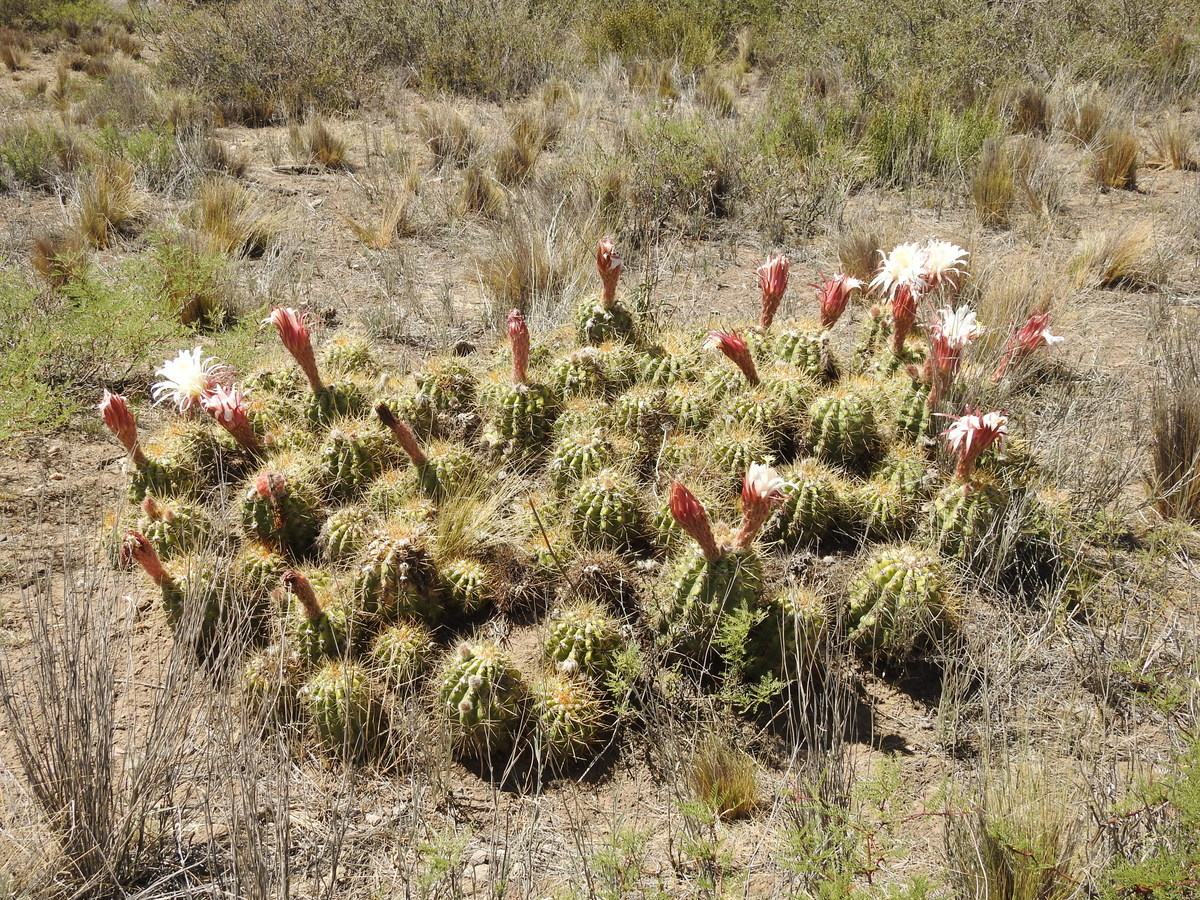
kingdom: Plantae
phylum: Tracheophyta
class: Magnoliopsida
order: Caryophyllales
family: Cactaceae
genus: Soehrensia
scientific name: Soehrensia candicans
